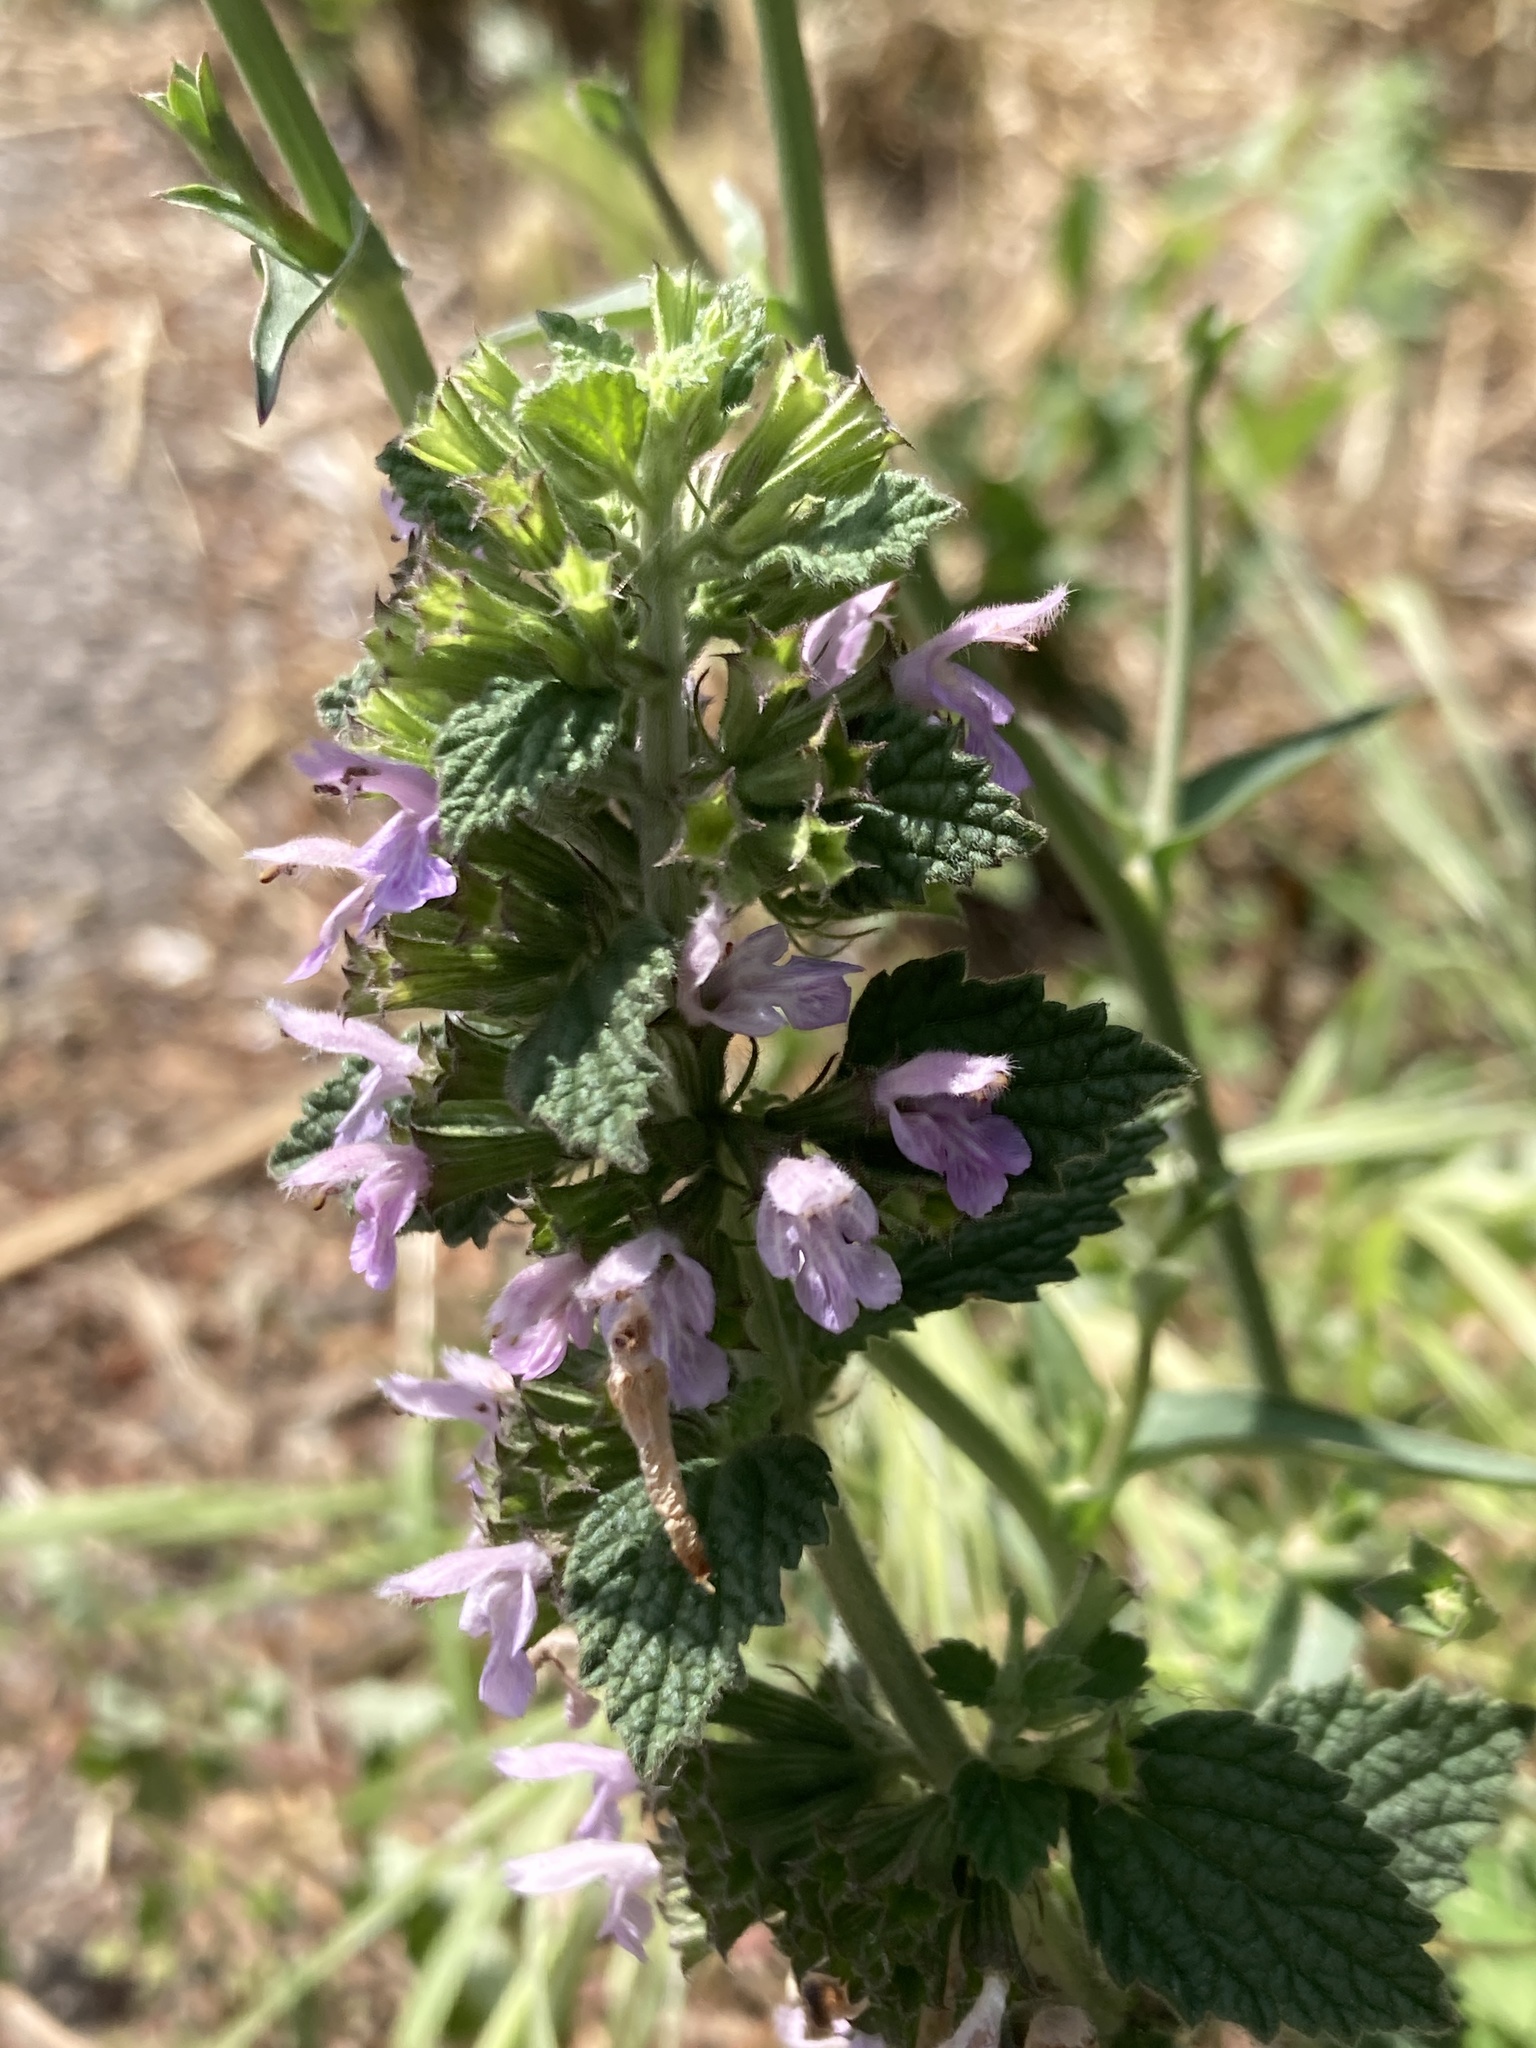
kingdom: Plantae
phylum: Tracheophyta
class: Magnoliopsida
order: Lamiales
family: Lamiaceae
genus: Ballota
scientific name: Ballota nigra
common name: Black horehound
